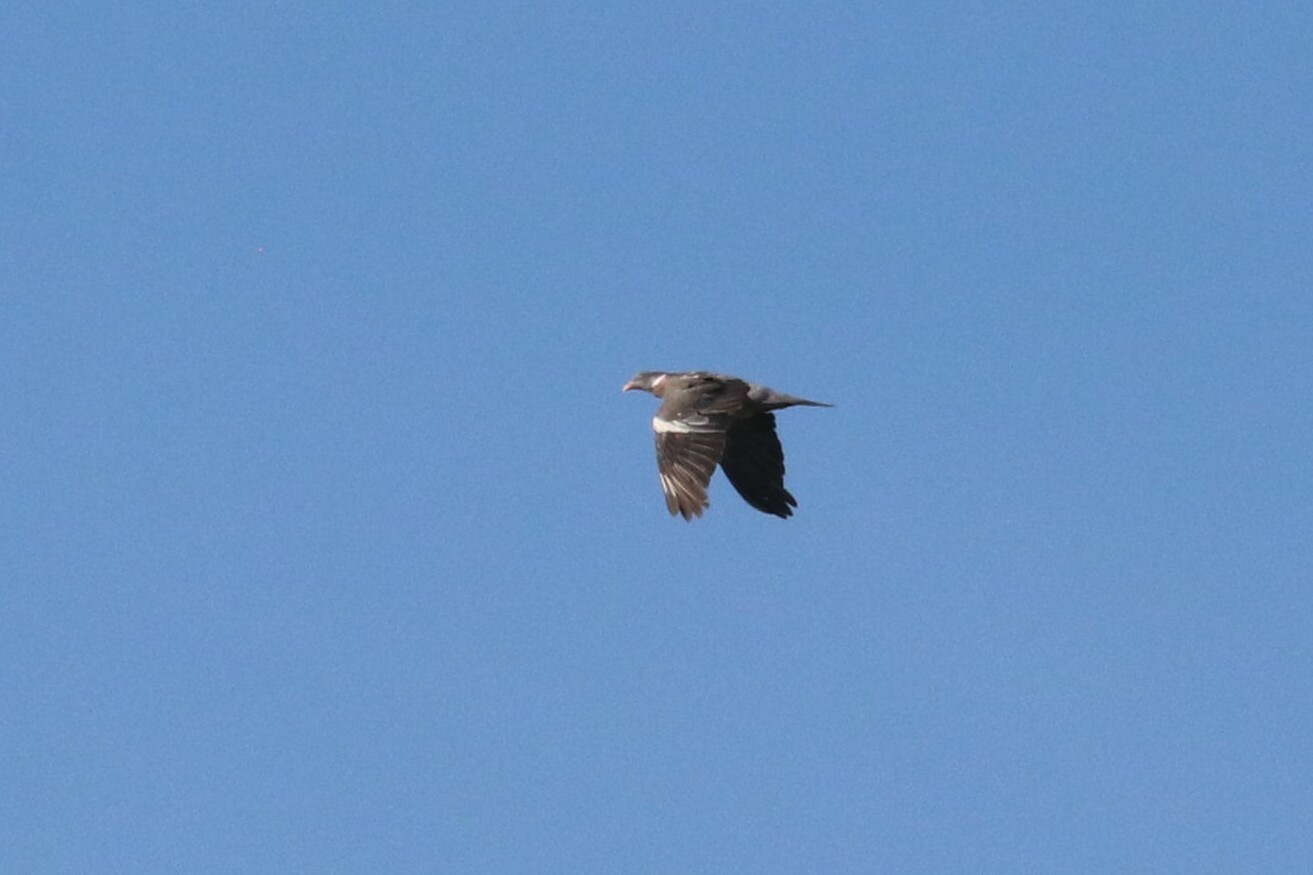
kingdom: Animalia
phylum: Chordata
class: Aves
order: Columbiformes
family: Columbidae
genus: Columba
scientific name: Columba palumbus
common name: Common wood pigeon
